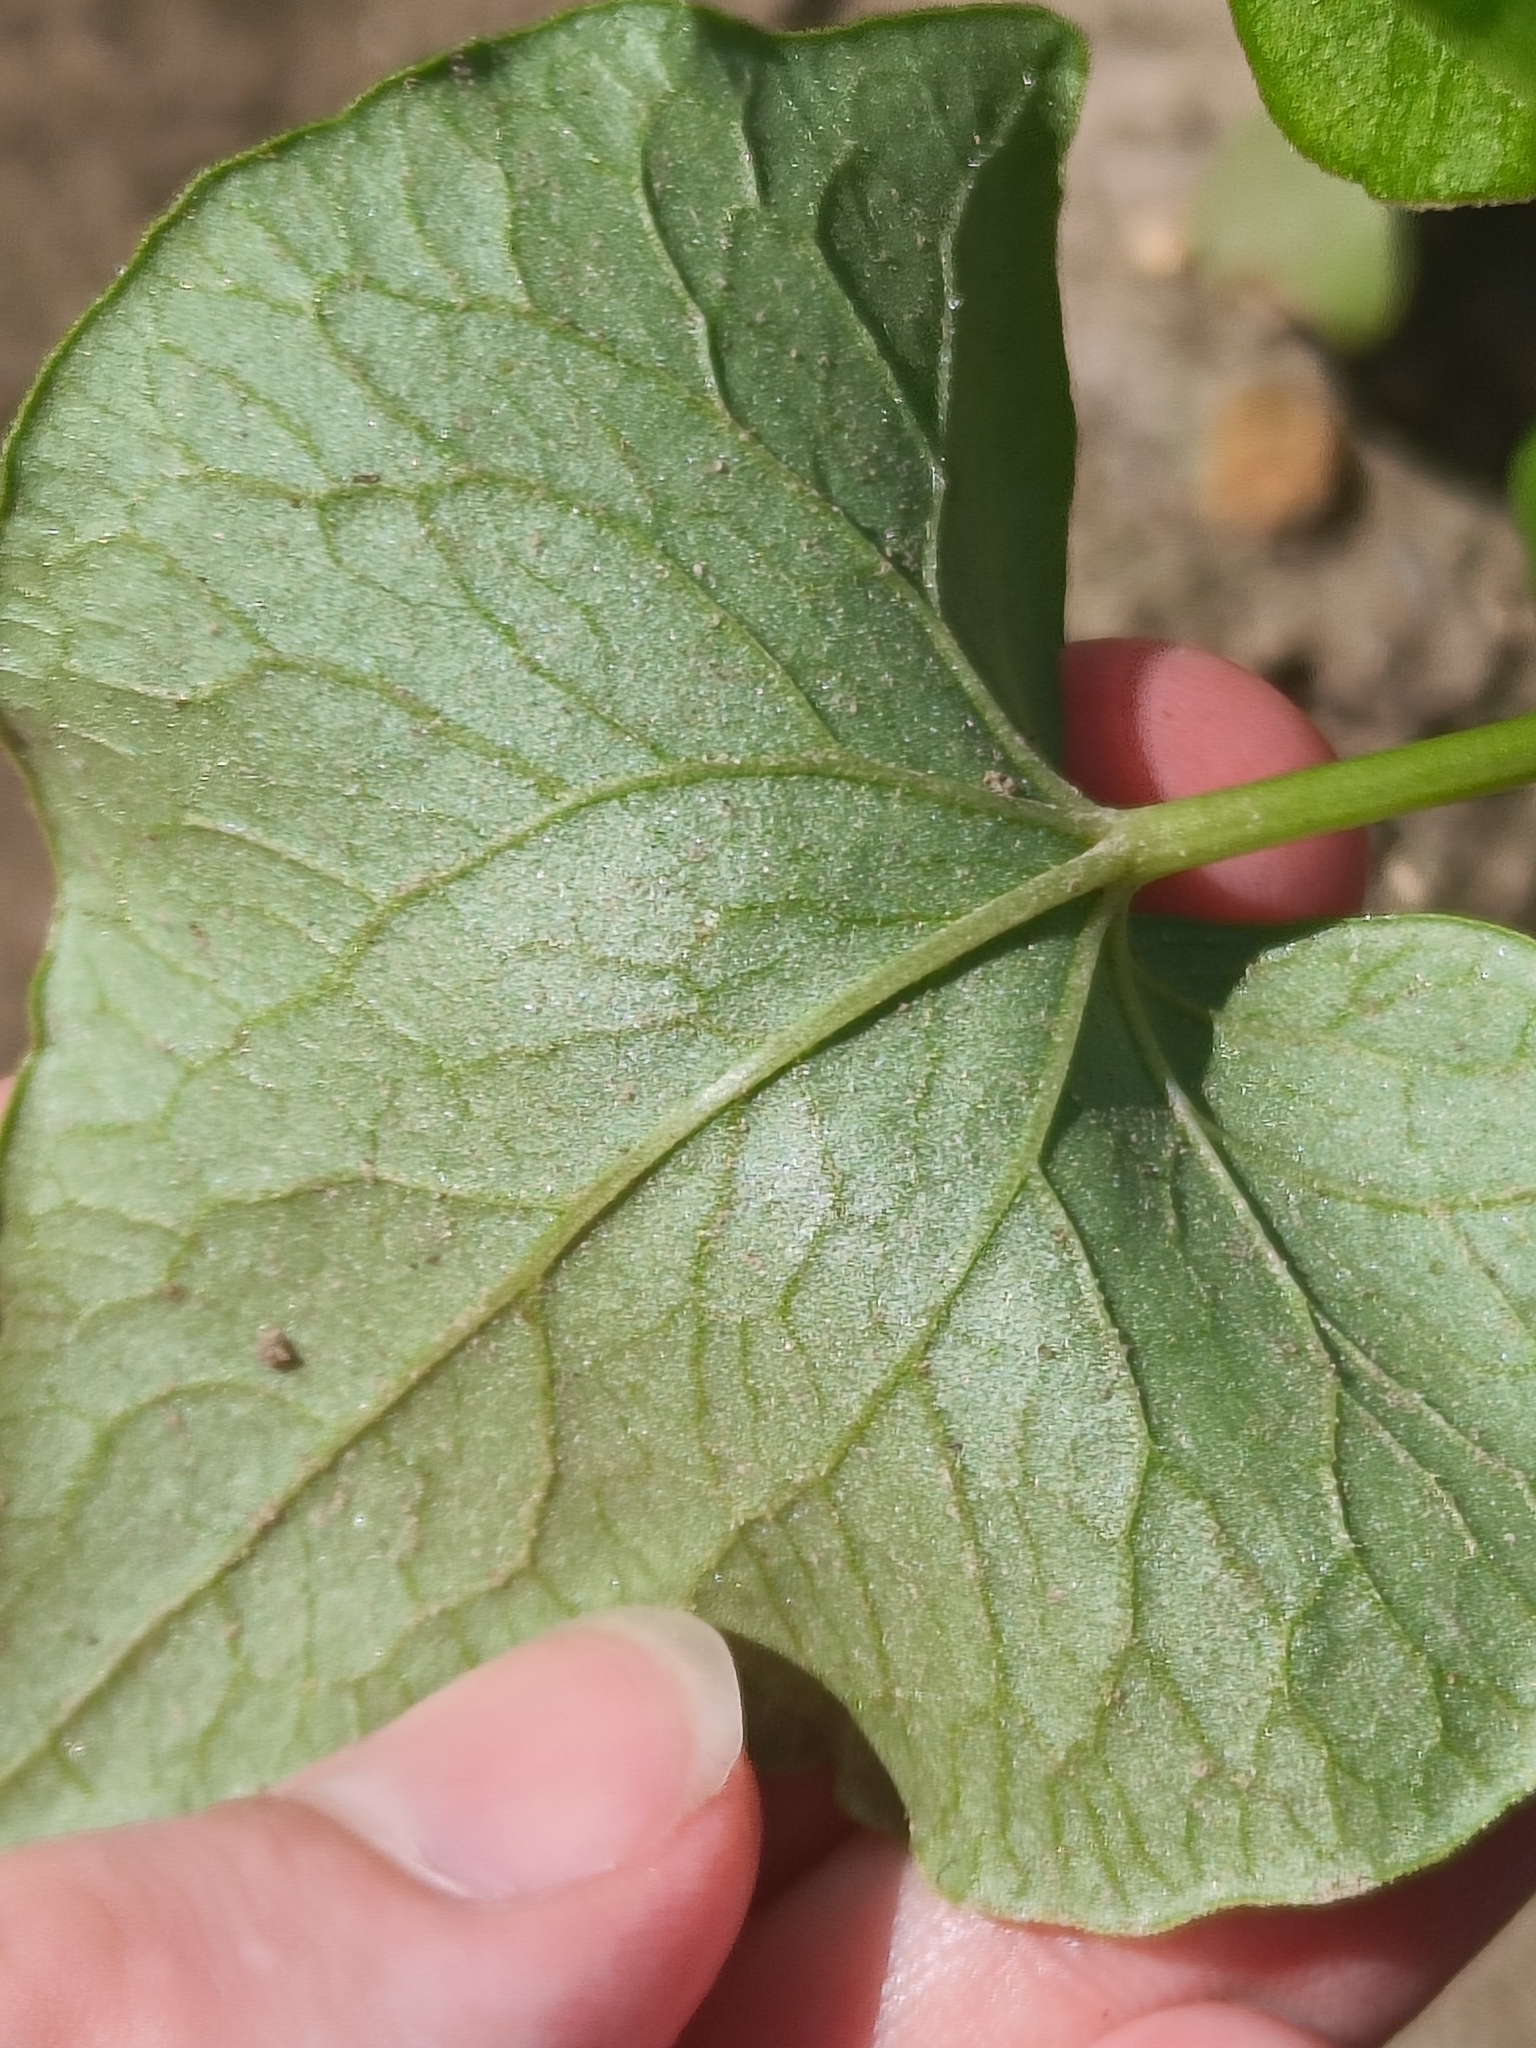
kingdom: Plantae
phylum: Tracheophyta
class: Magnoliopsida
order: Caryophyllales
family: Polygonaceae
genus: Fagopyrum
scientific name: Fagopyrum esculentum
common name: Buckwheat
